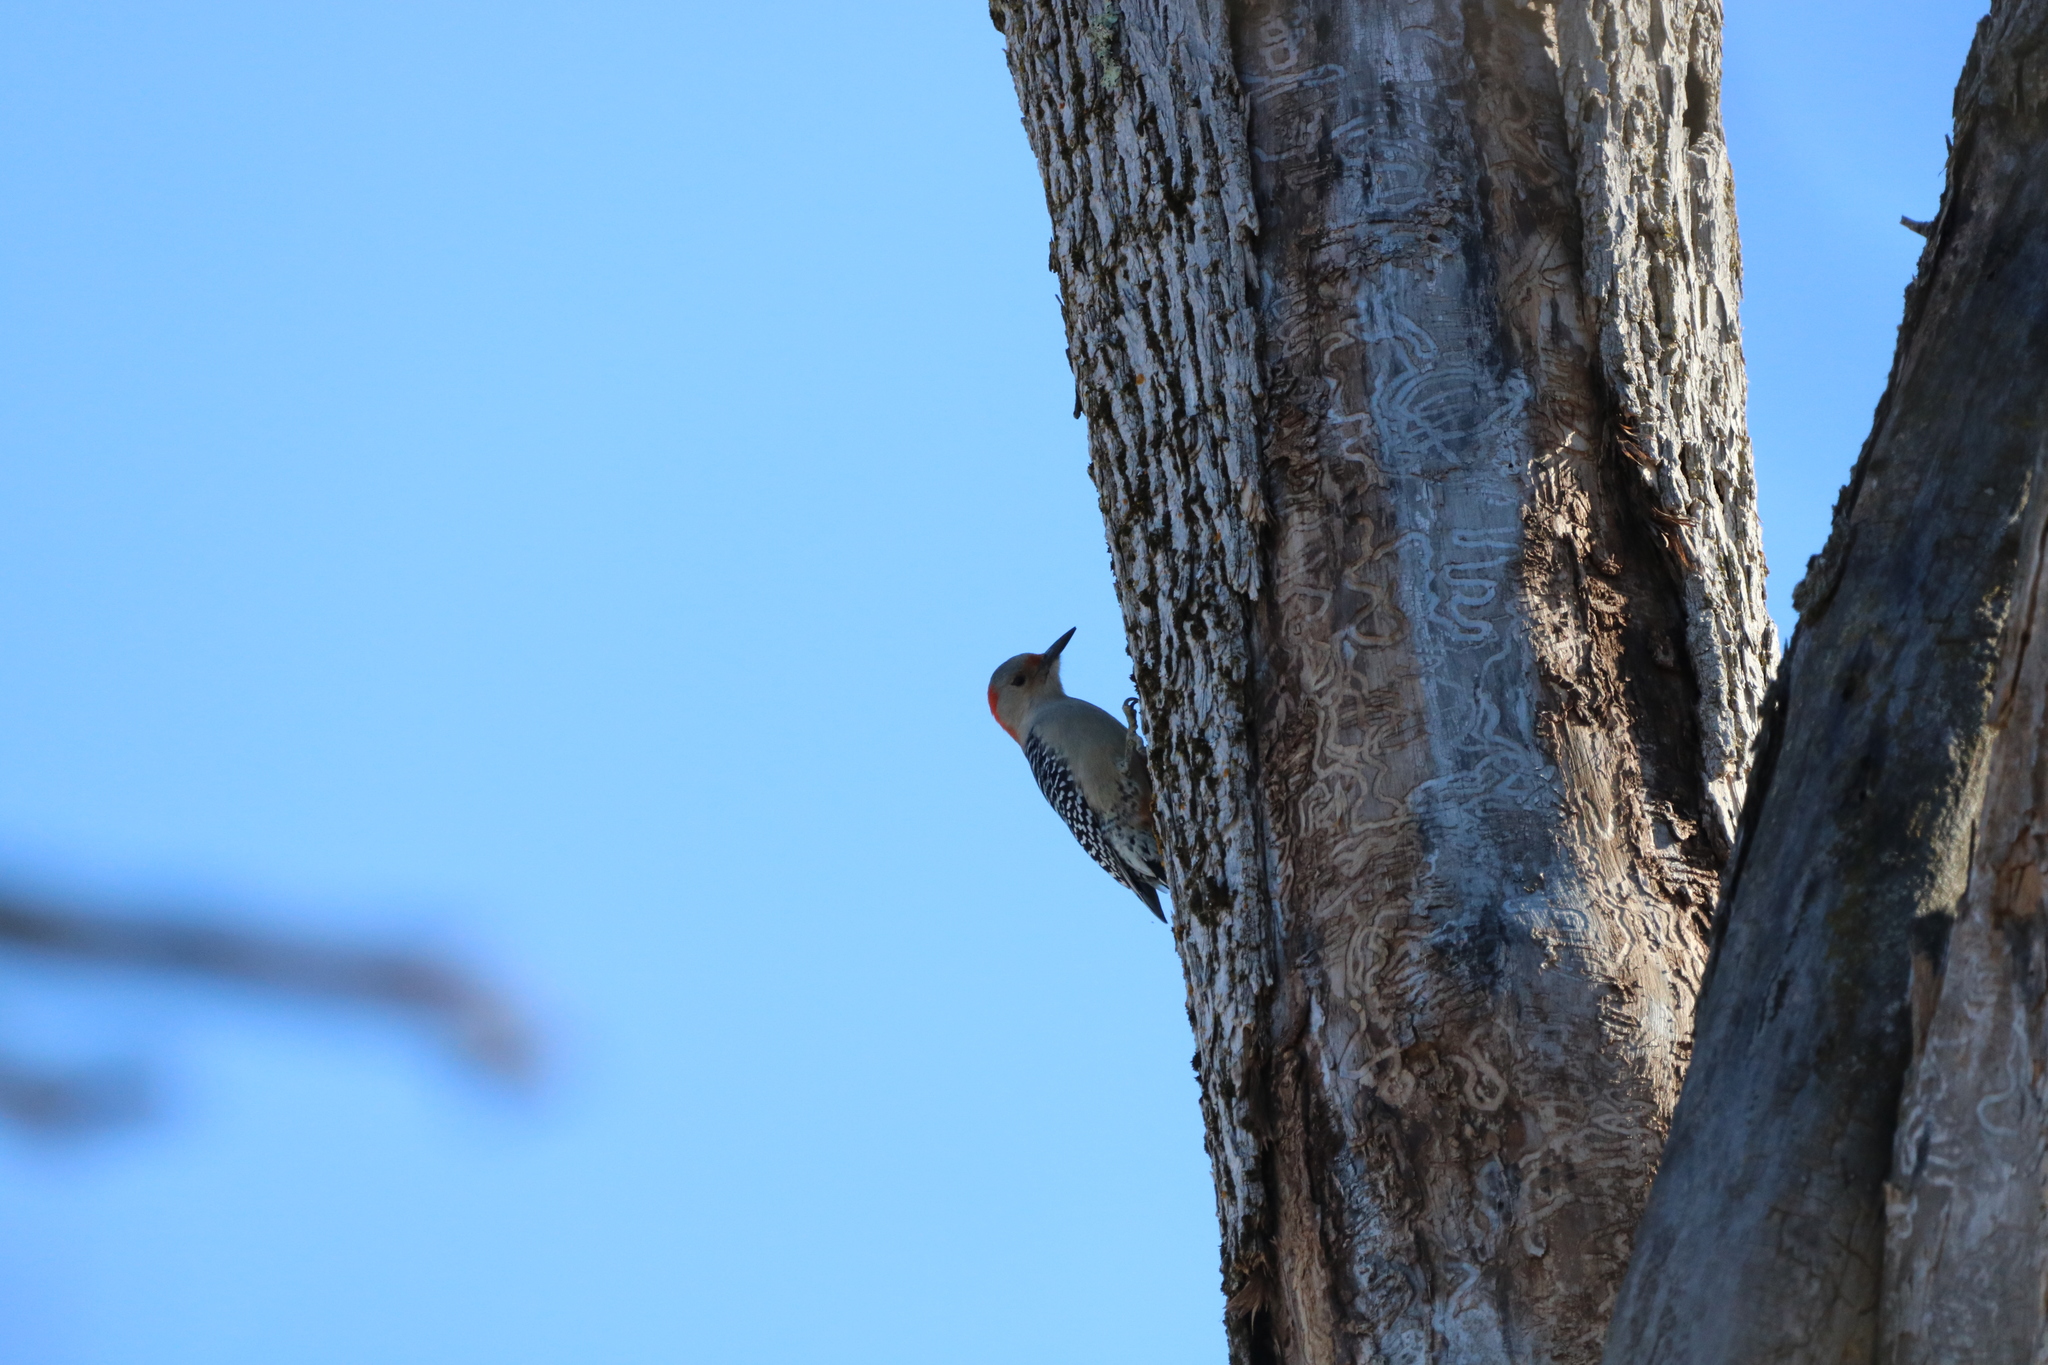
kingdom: Animalia
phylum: Chordata
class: Aves
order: Piciformes
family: Picidae
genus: Melanerpes
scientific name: Melanerpes carolinus
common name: Red-bellied woodpecker
